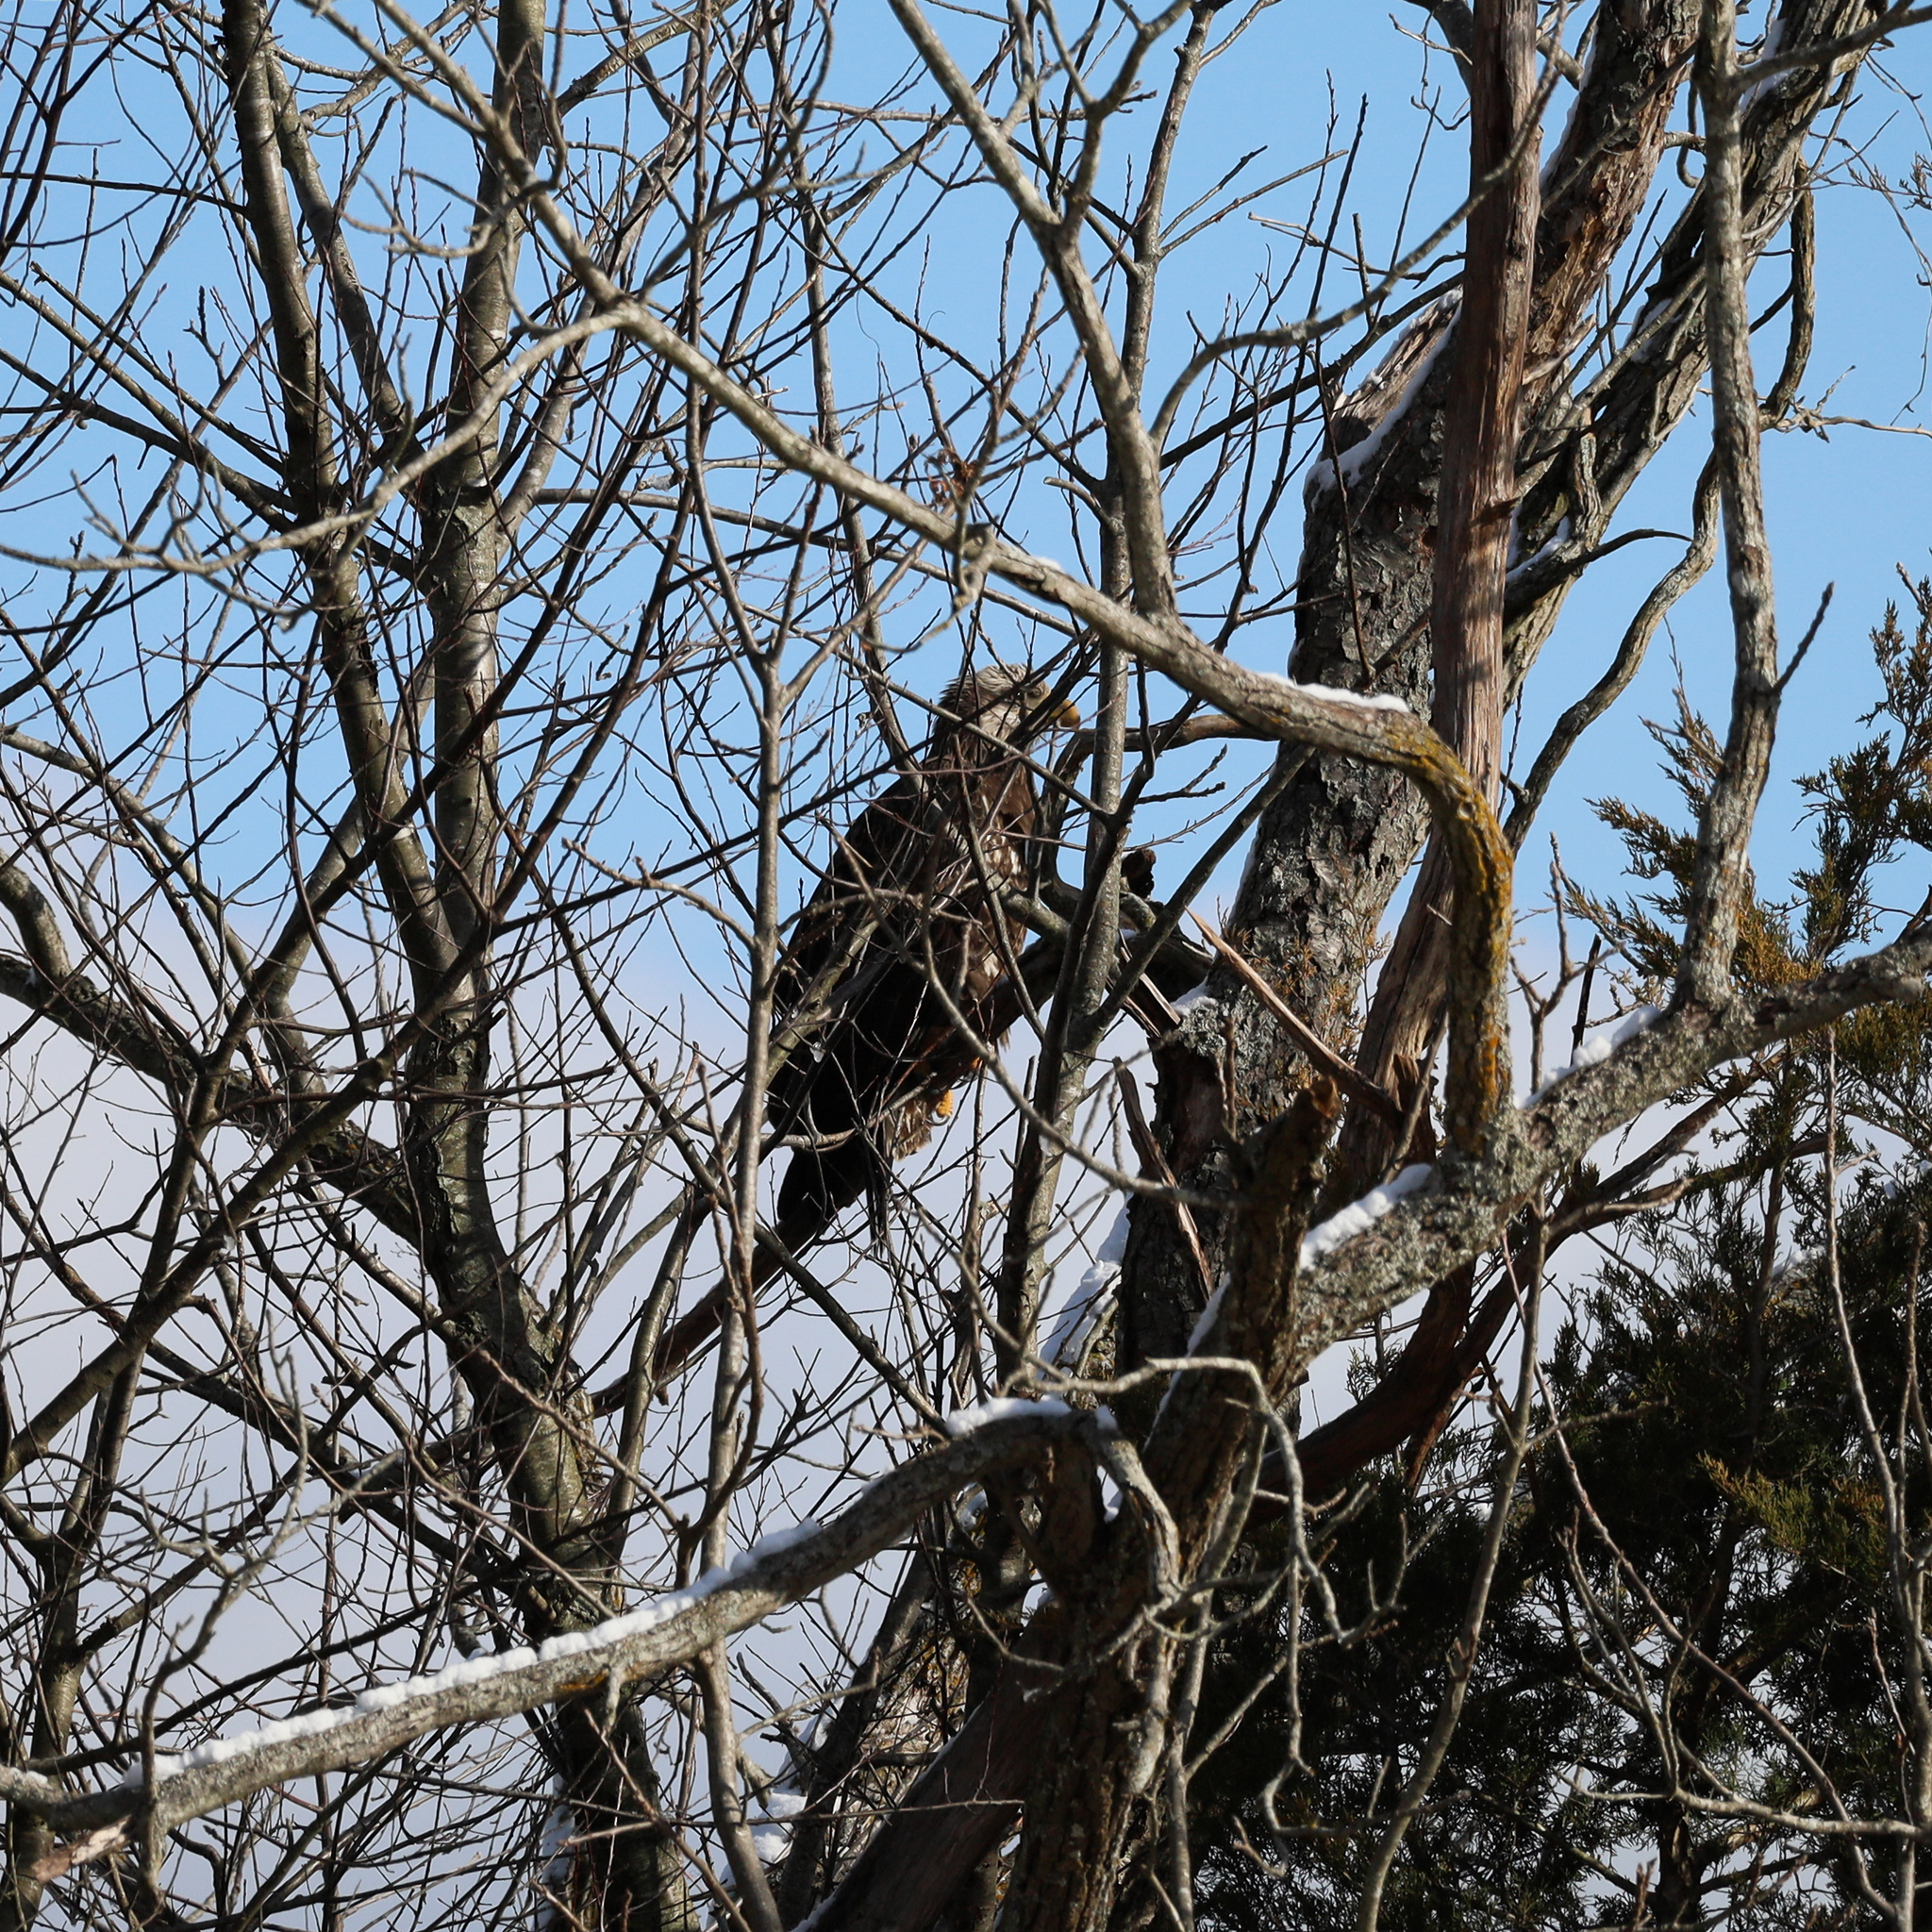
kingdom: Animalia
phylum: Chordata
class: Aves
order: Accipitriformes
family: Accipitridae
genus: Haliaeetus
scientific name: Haliaeetus leucocephalus
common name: Bald eagle
